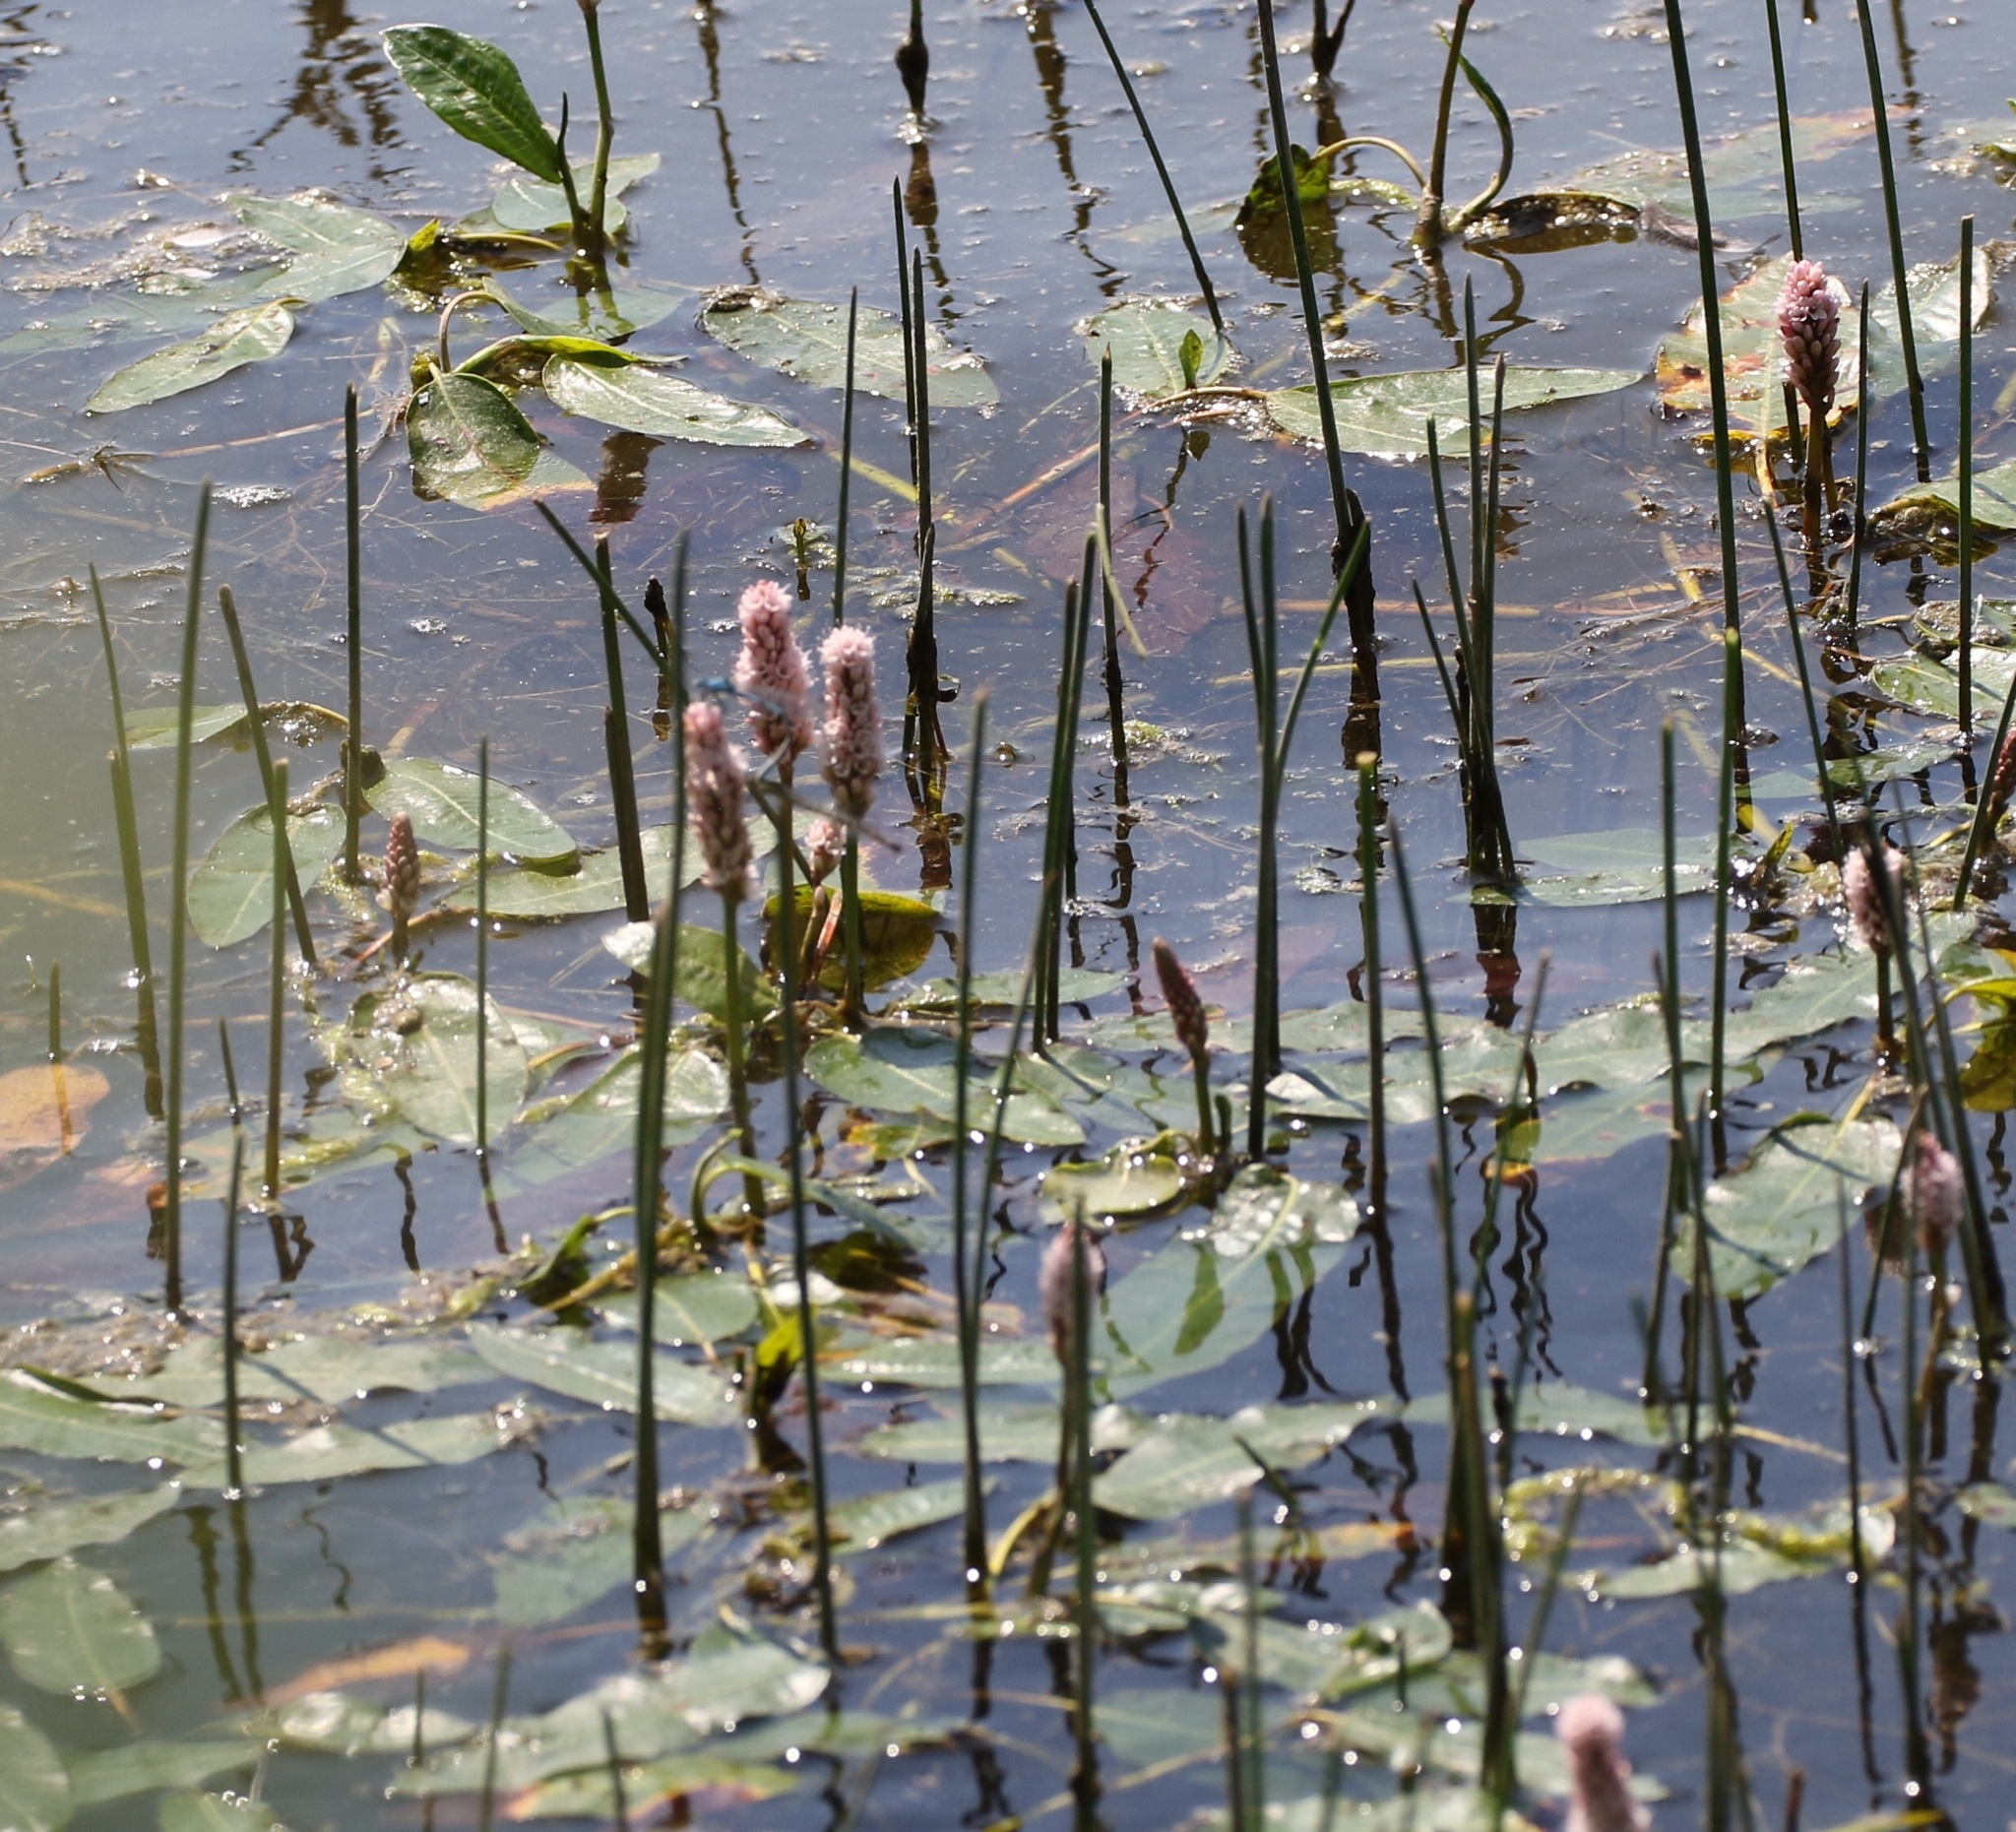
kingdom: Plantae
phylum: Tracheophyta
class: Magnoliopsida
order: Caryophyllales
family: Polygonaceae
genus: Persicaria
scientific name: Persicaria amphibia
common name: Amphibious bistort
